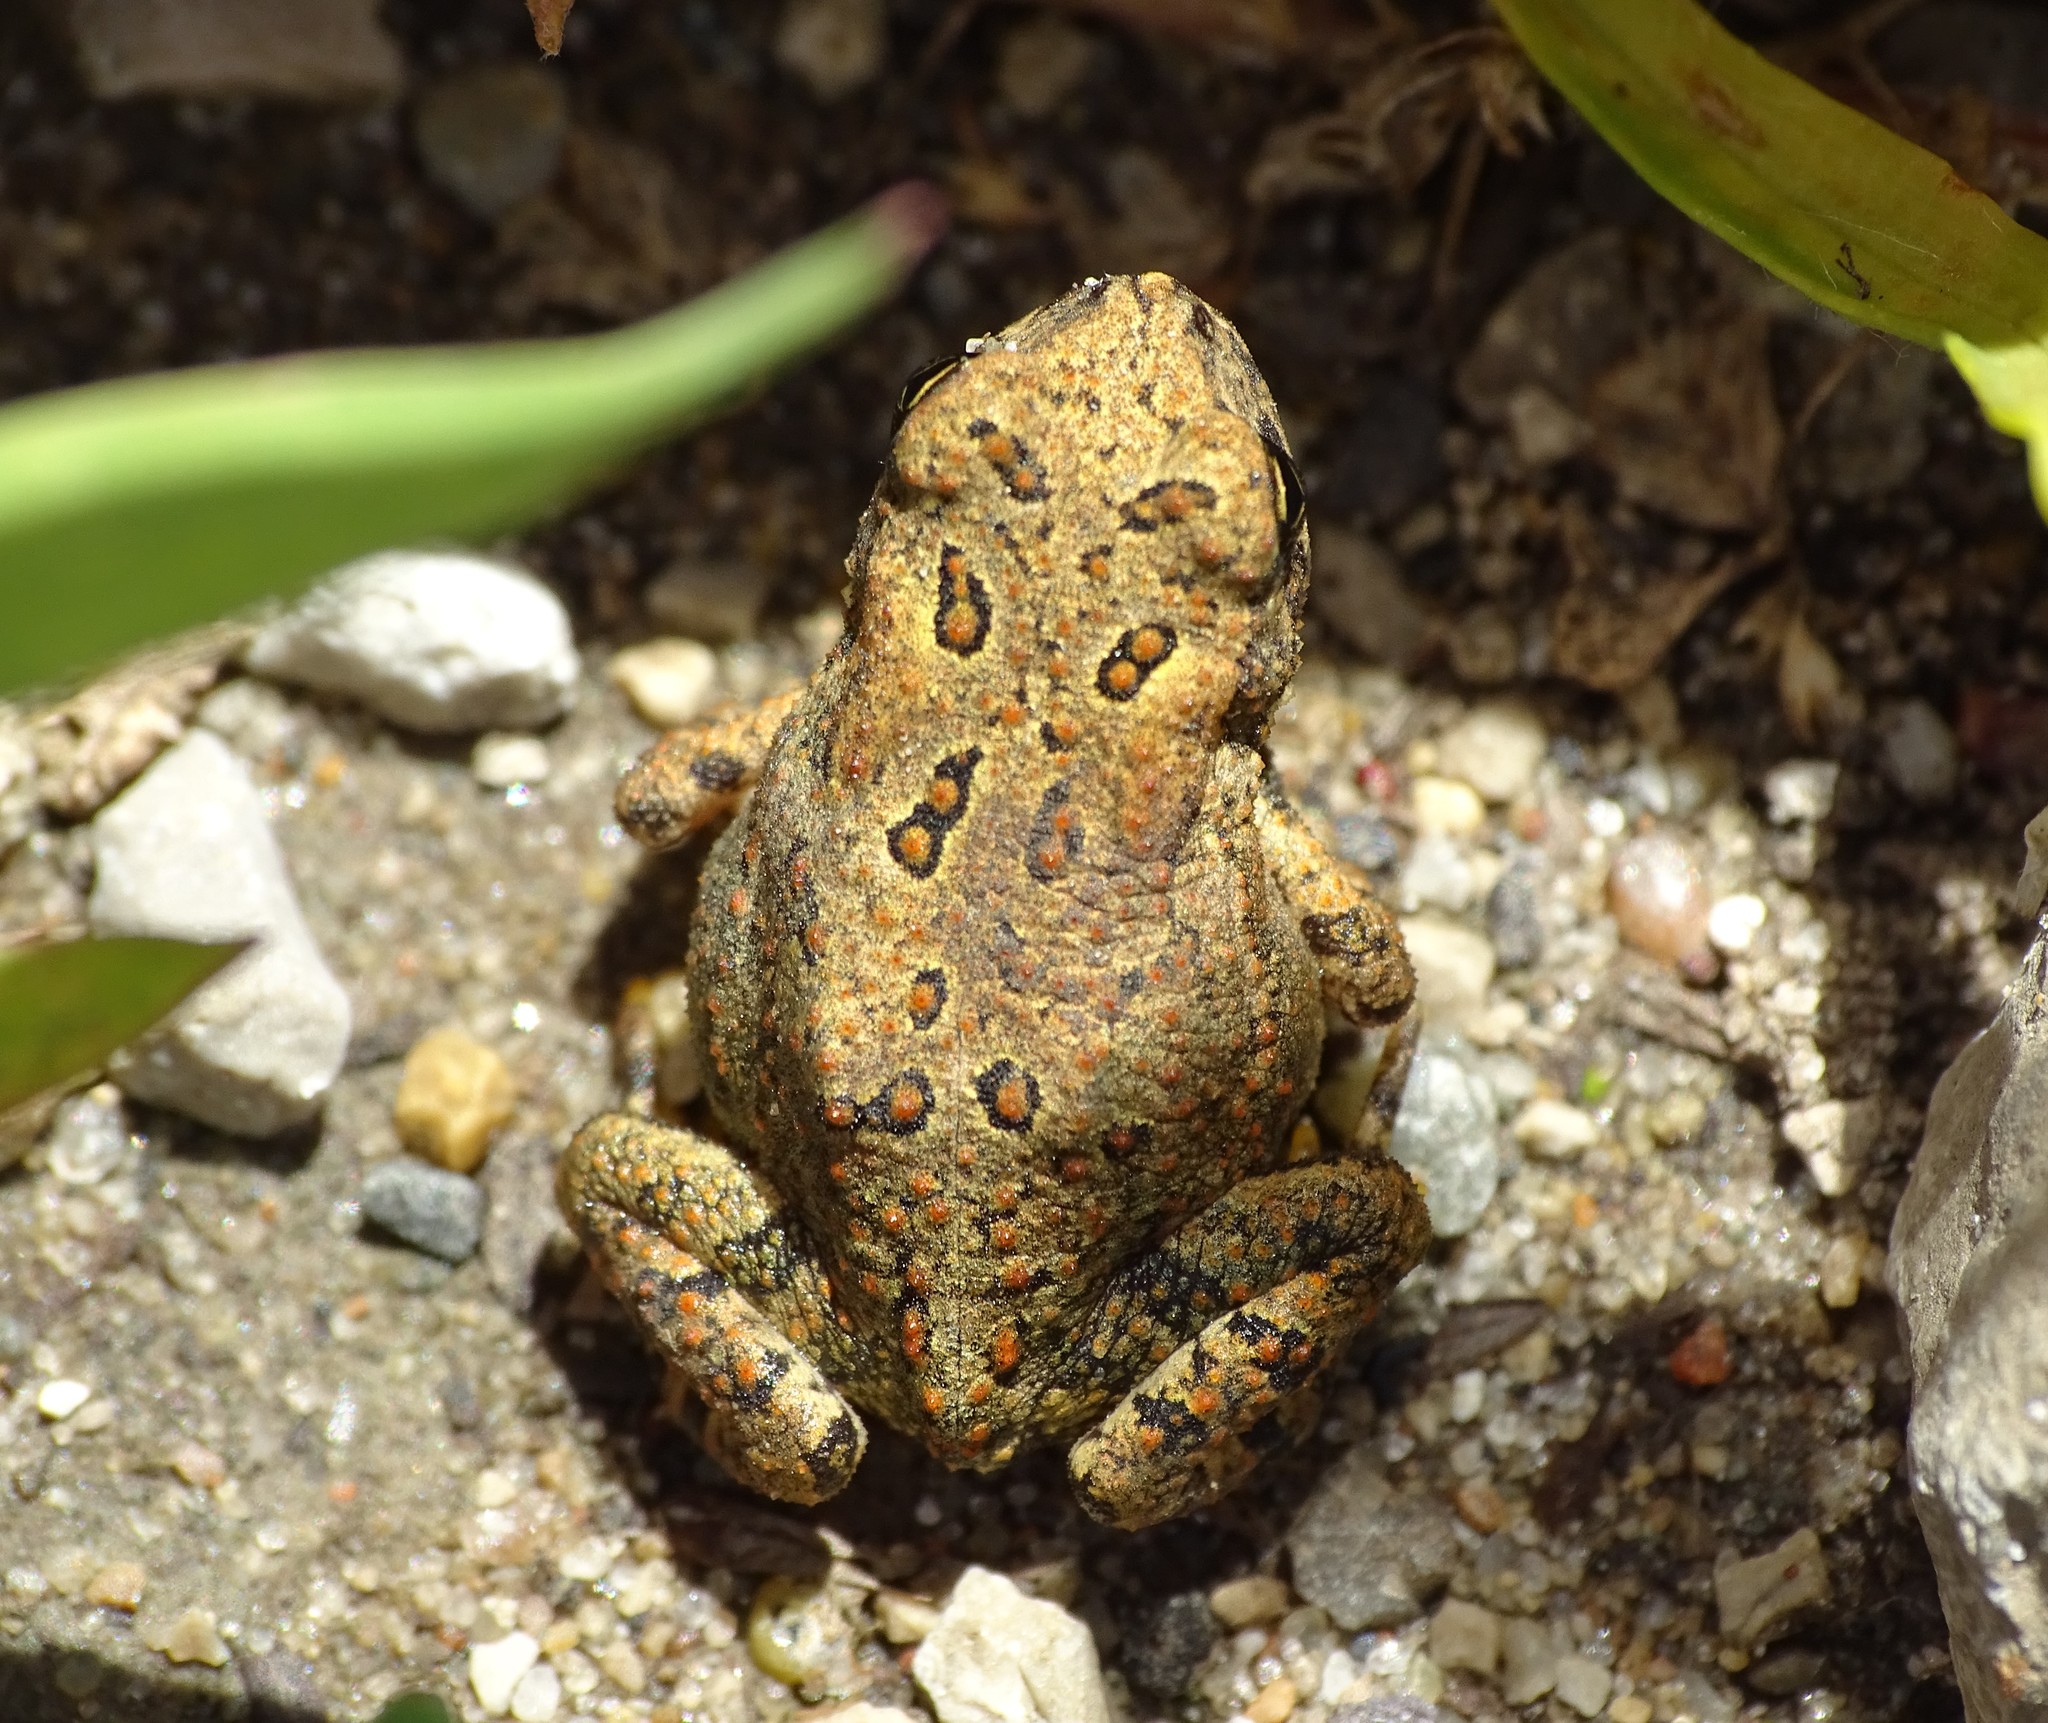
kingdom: Animalia
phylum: Chordata
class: Amphibia
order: Anura
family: Bufonidae
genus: Anaxyrus
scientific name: Anaxyrus americanus
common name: American toad
